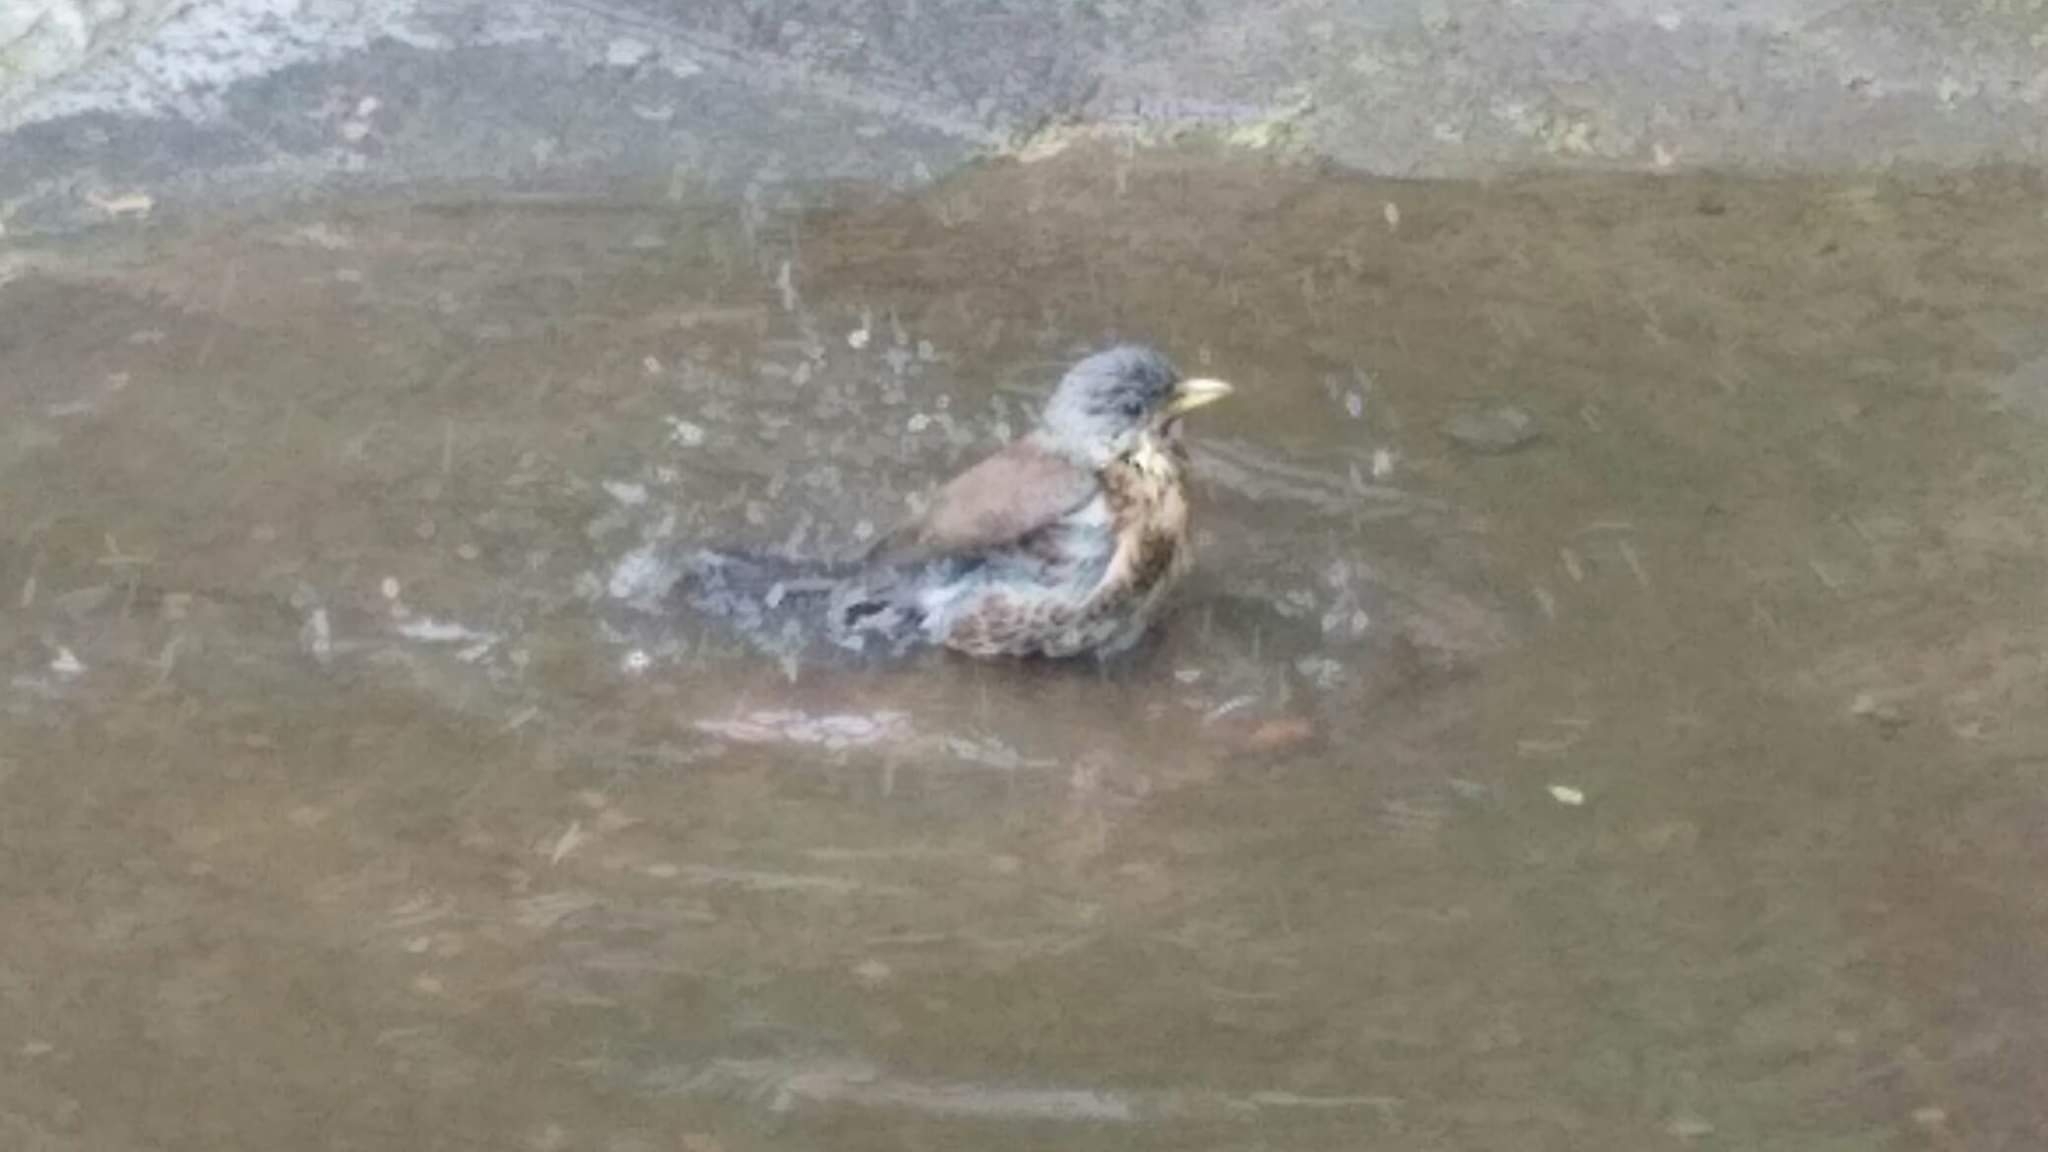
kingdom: Animalia
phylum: Chordata
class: Aves
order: Passeriformes
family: Turdidae
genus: Turdus
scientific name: Turdus pilaris
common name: Fieldfare
